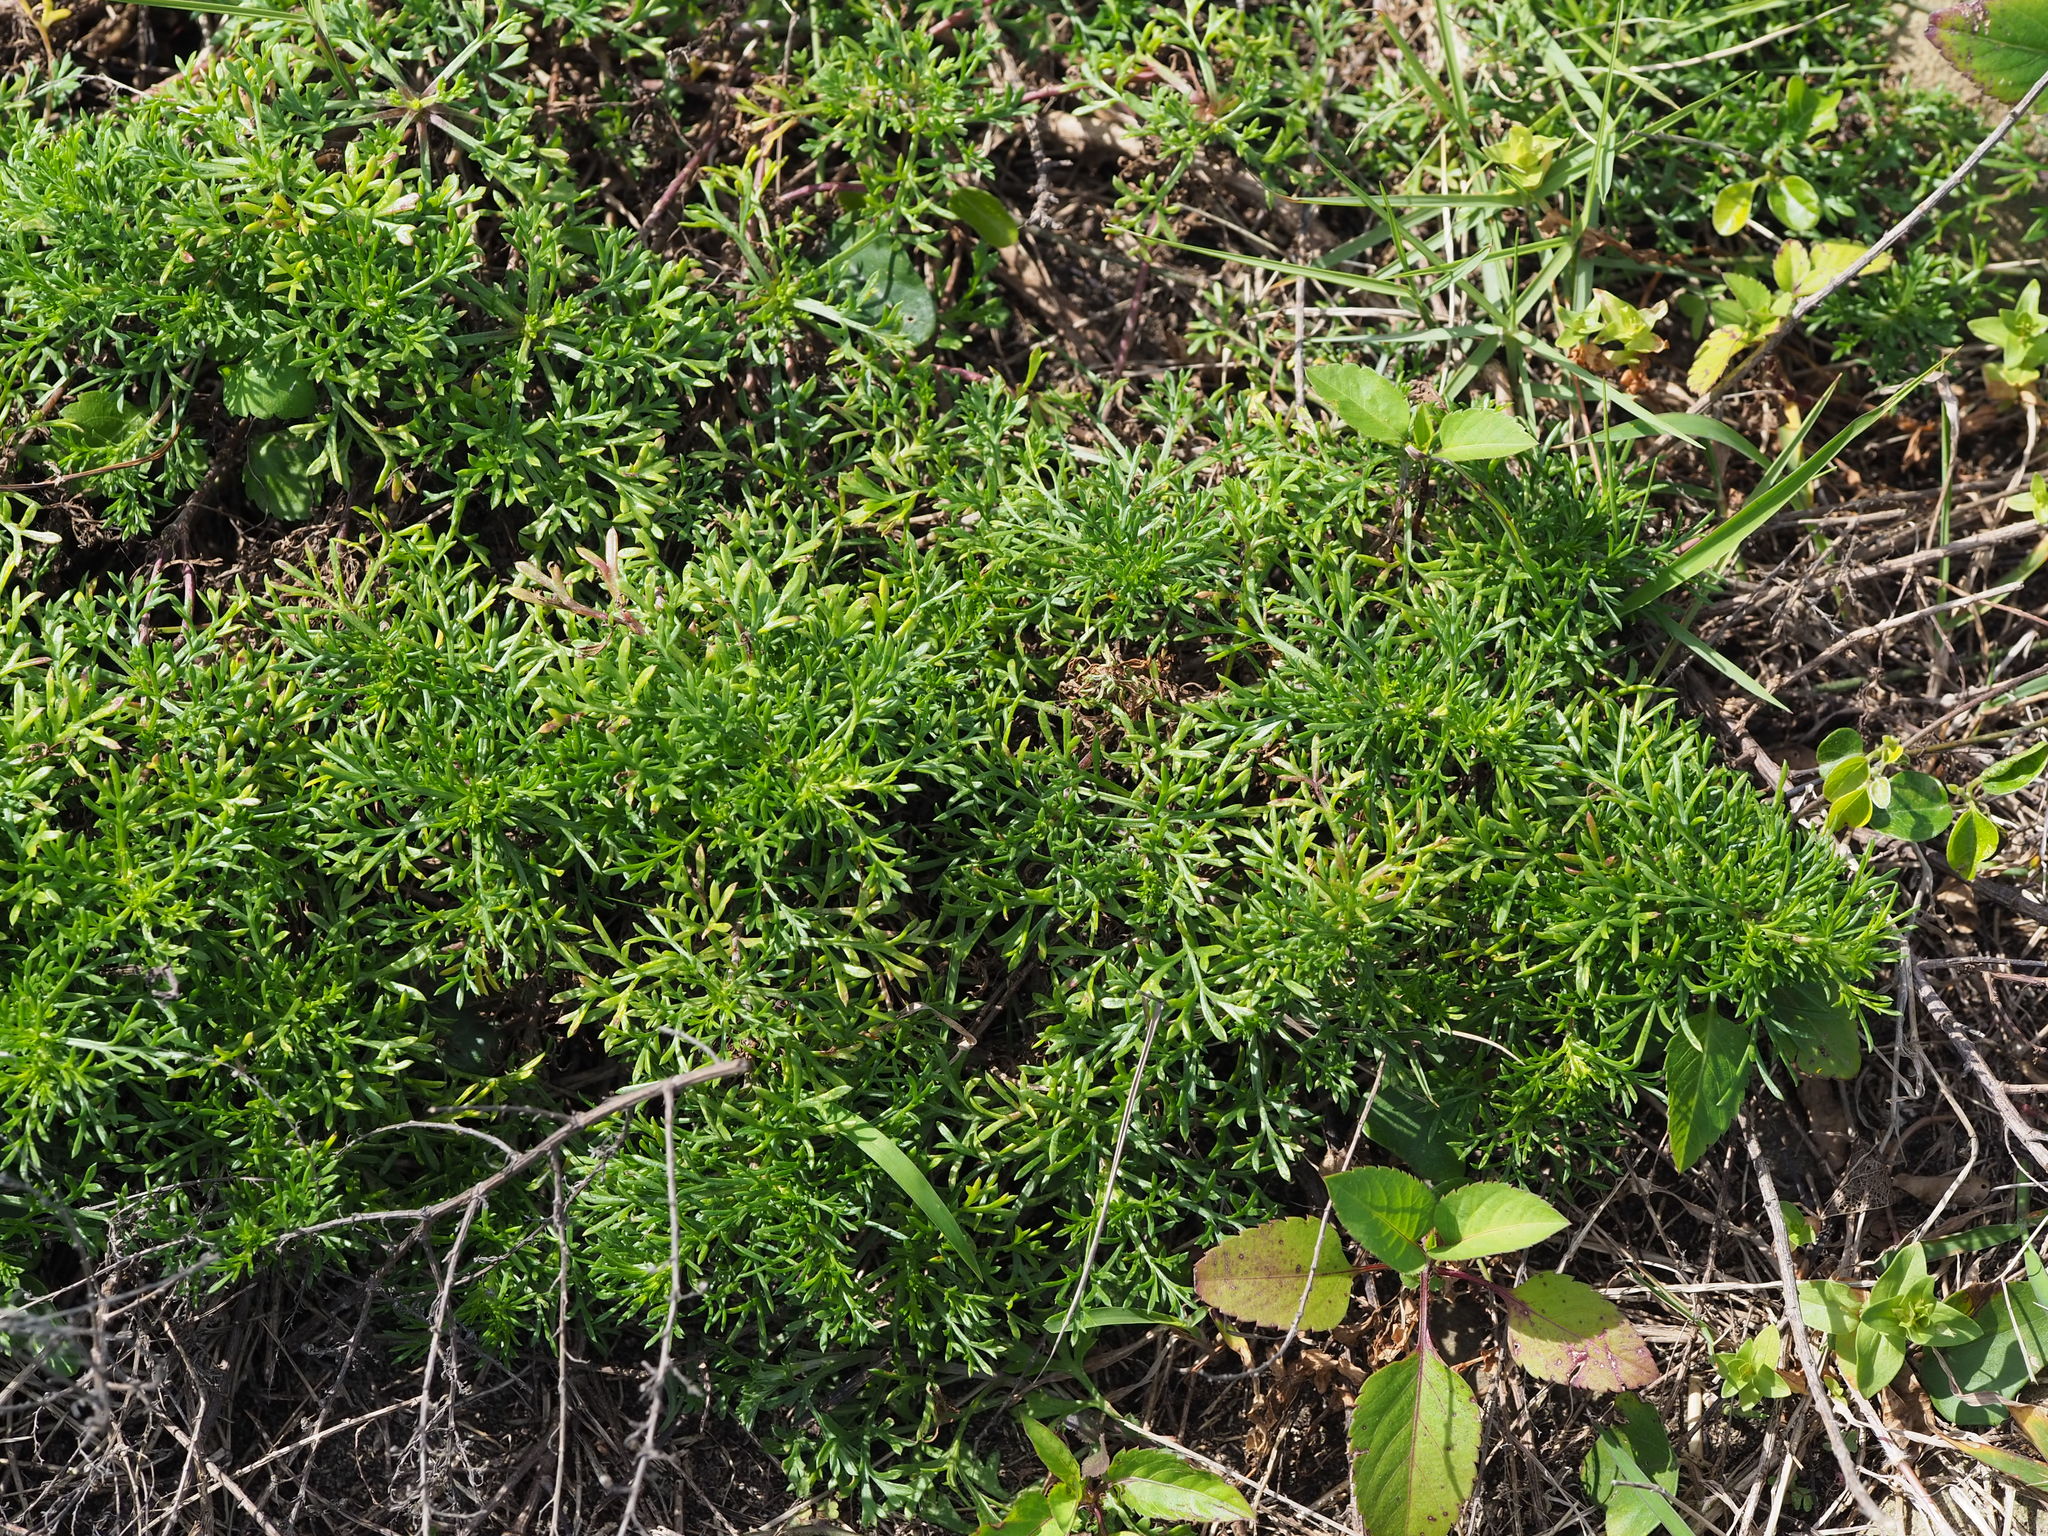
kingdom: Plantae
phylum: Tracheophyta
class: Magnoliopsida
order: Asterales
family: Asteraceae
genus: Artemisia
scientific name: Artemisia capillaris
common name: Yin-chen wormwood
